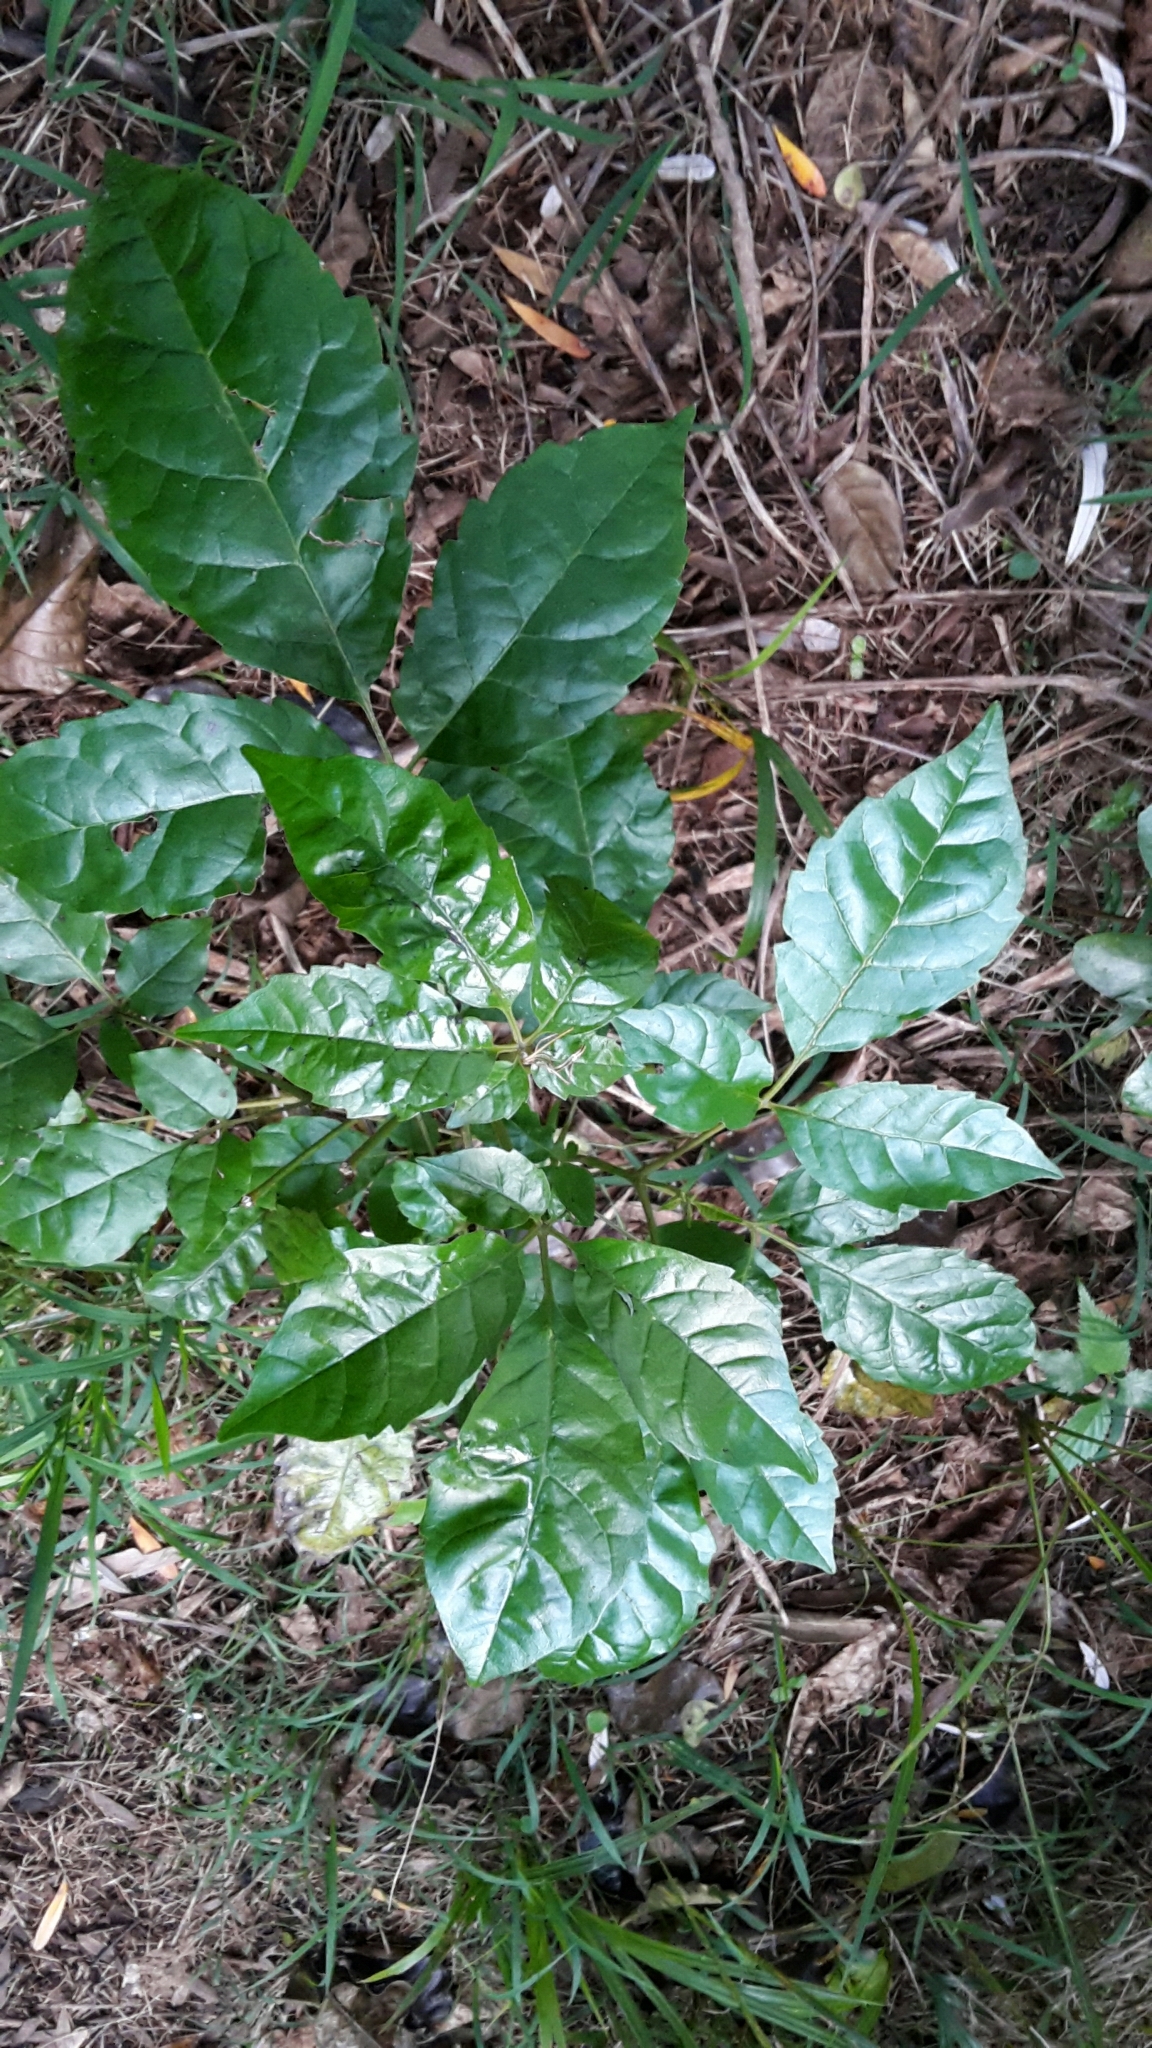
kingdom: Plantae
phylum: Tracheophyta
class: Magnoliopsida
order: Lamiales
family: Lamiaceae
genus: Vitex
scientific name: Vitex lucens
